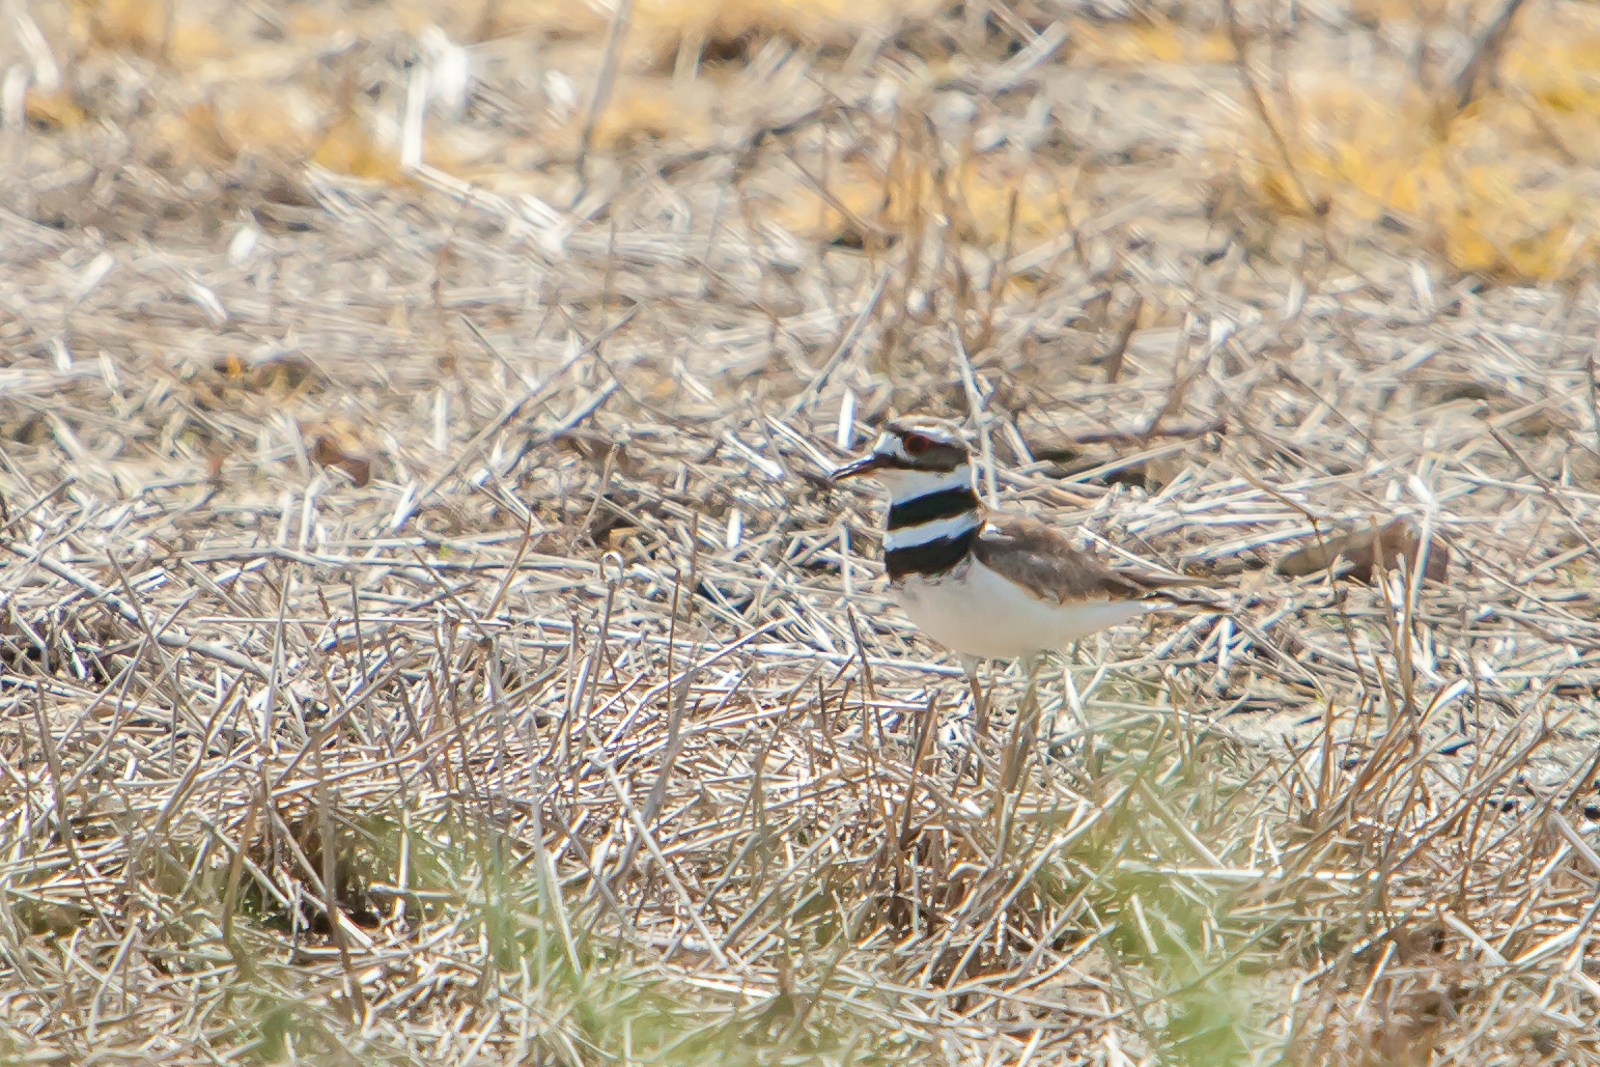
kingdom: Animalia
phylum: Chordata
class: Aves
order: Charadriiformes
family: Charadriidae
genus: Charadrius
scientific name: Charadrius vociferus
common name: Killdeer
